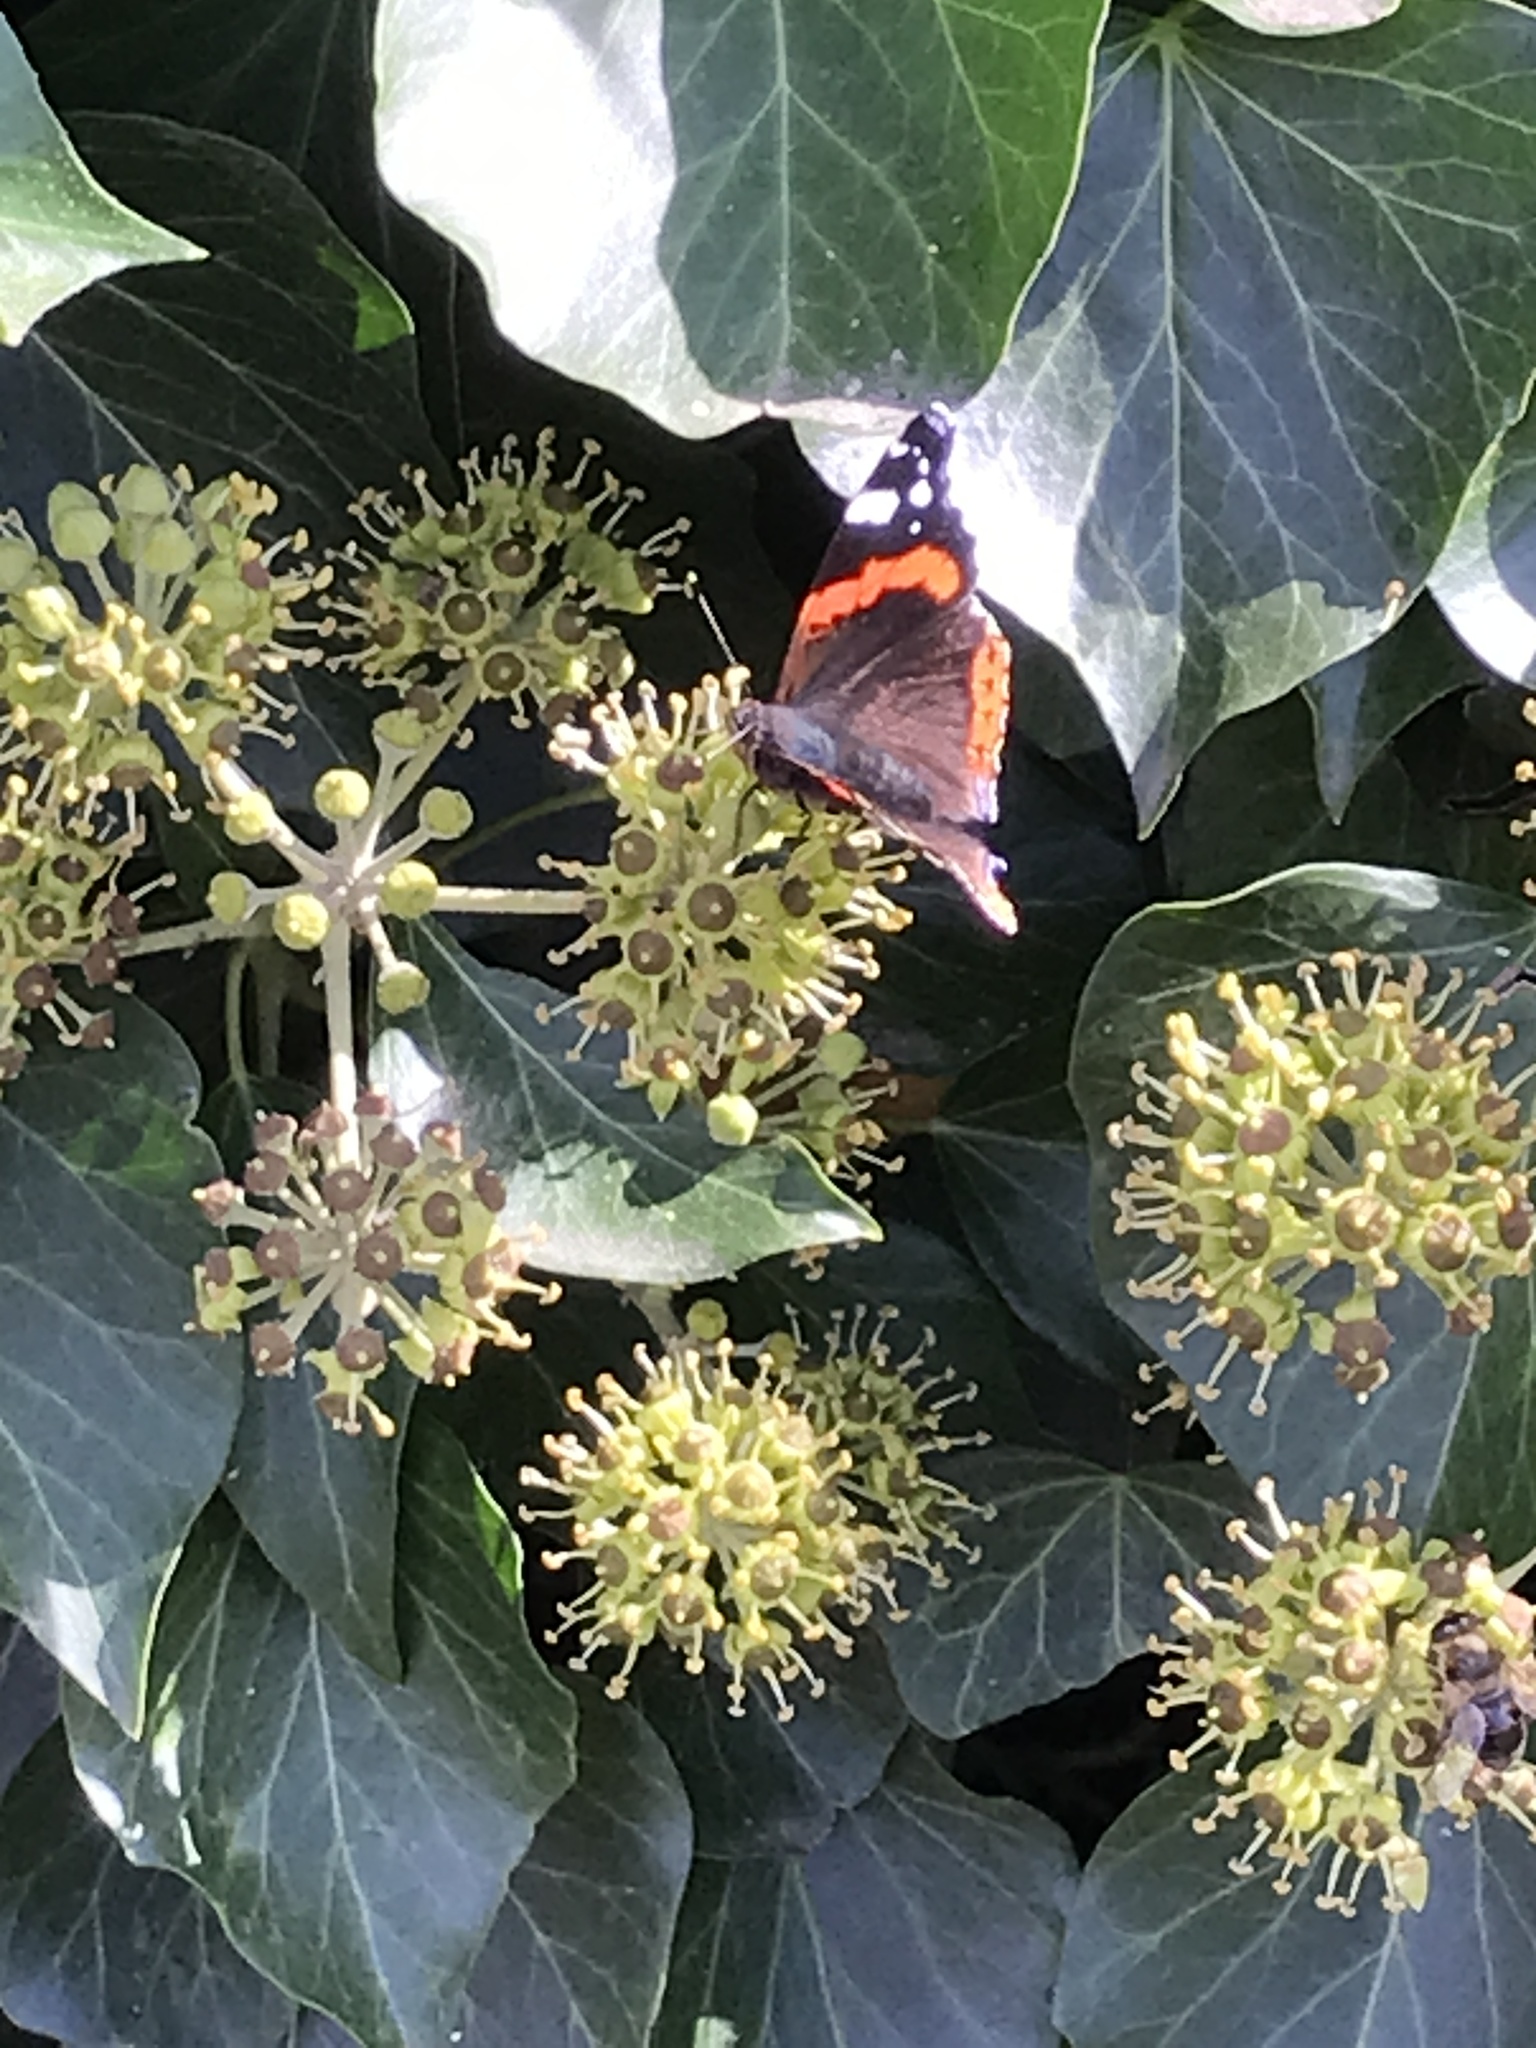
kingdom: Animalia
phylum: Arthropoda
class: Insecta
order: Lepidoptera
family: Nymphalidae
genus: Vanessa
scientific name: Vanessa atalanta
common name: Red admiral
